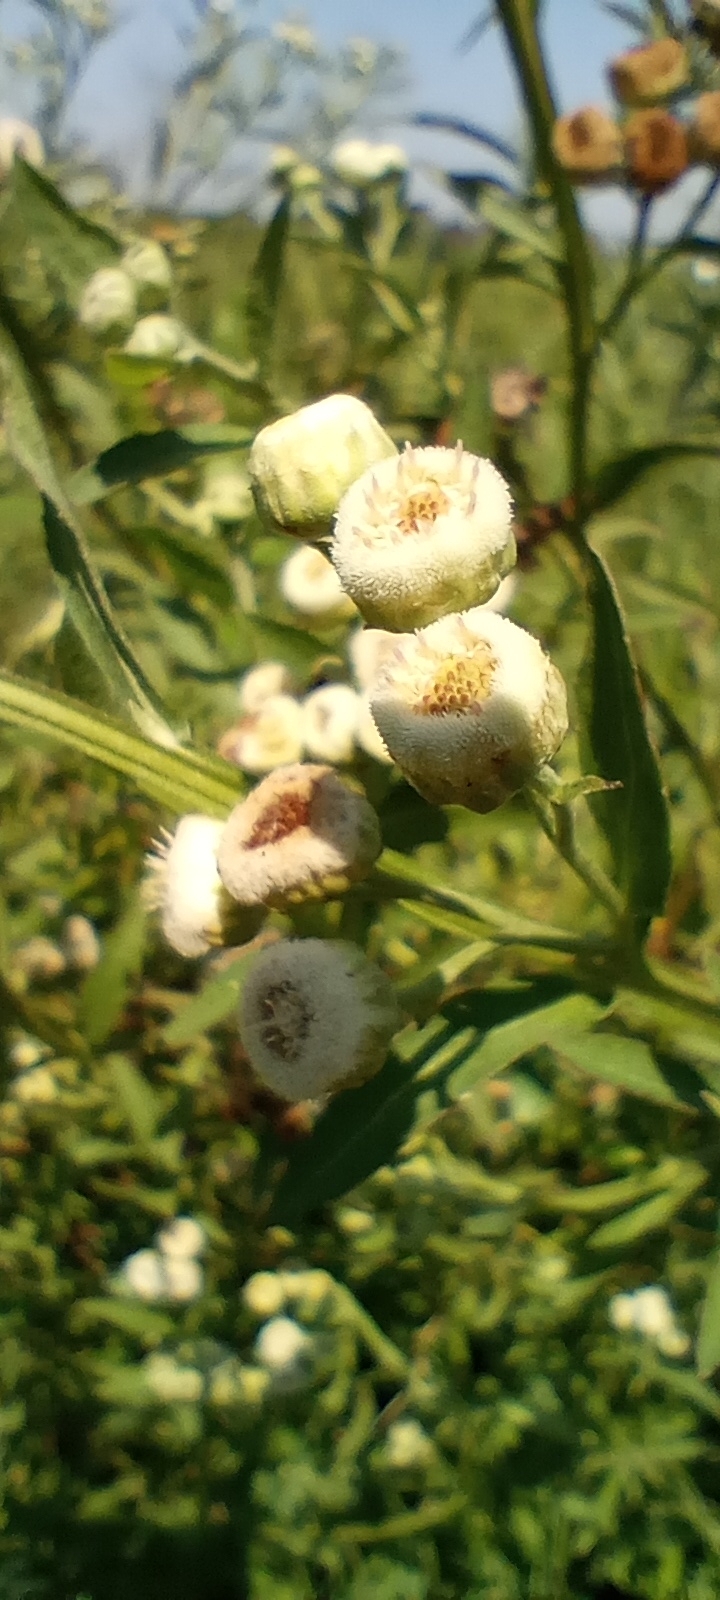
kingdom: Plantae
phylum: Tracheophyta
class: Magnoliopsida
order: Asterales
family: Asteraceae
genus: Pluchea
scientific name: Pluchea sagittalis
